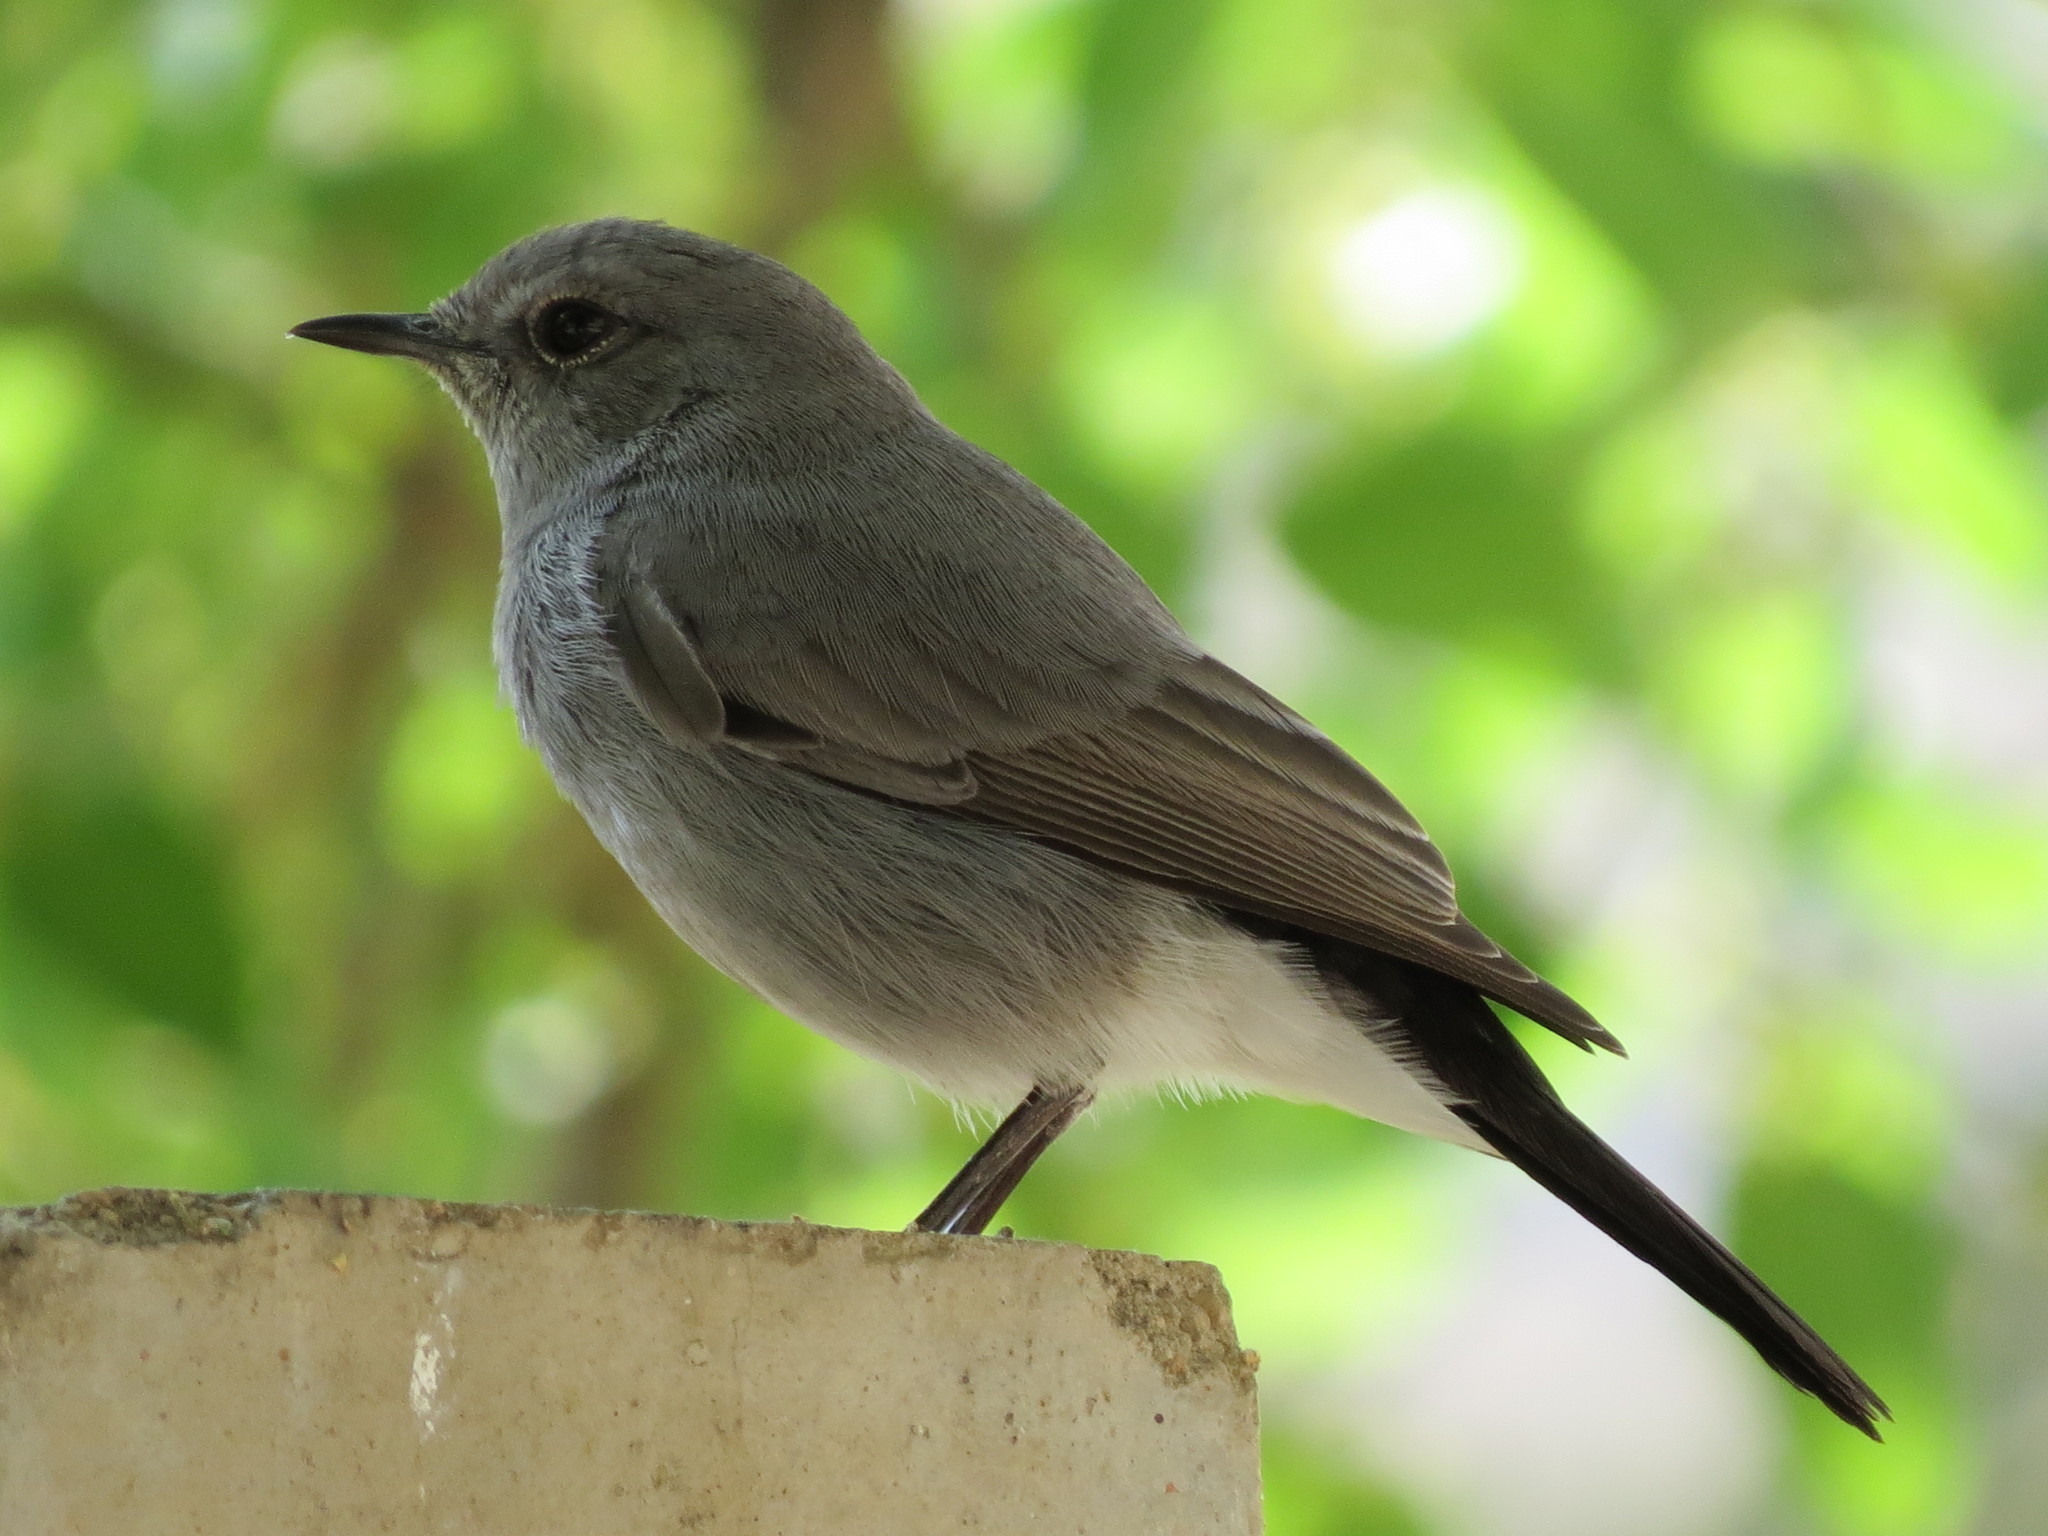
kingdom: Animalia
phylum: Chordata
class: Aves
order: Passeriformes
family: Muscicapidae
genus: Oenanthe
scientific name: Oenanthe melanura
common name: Blackstart
